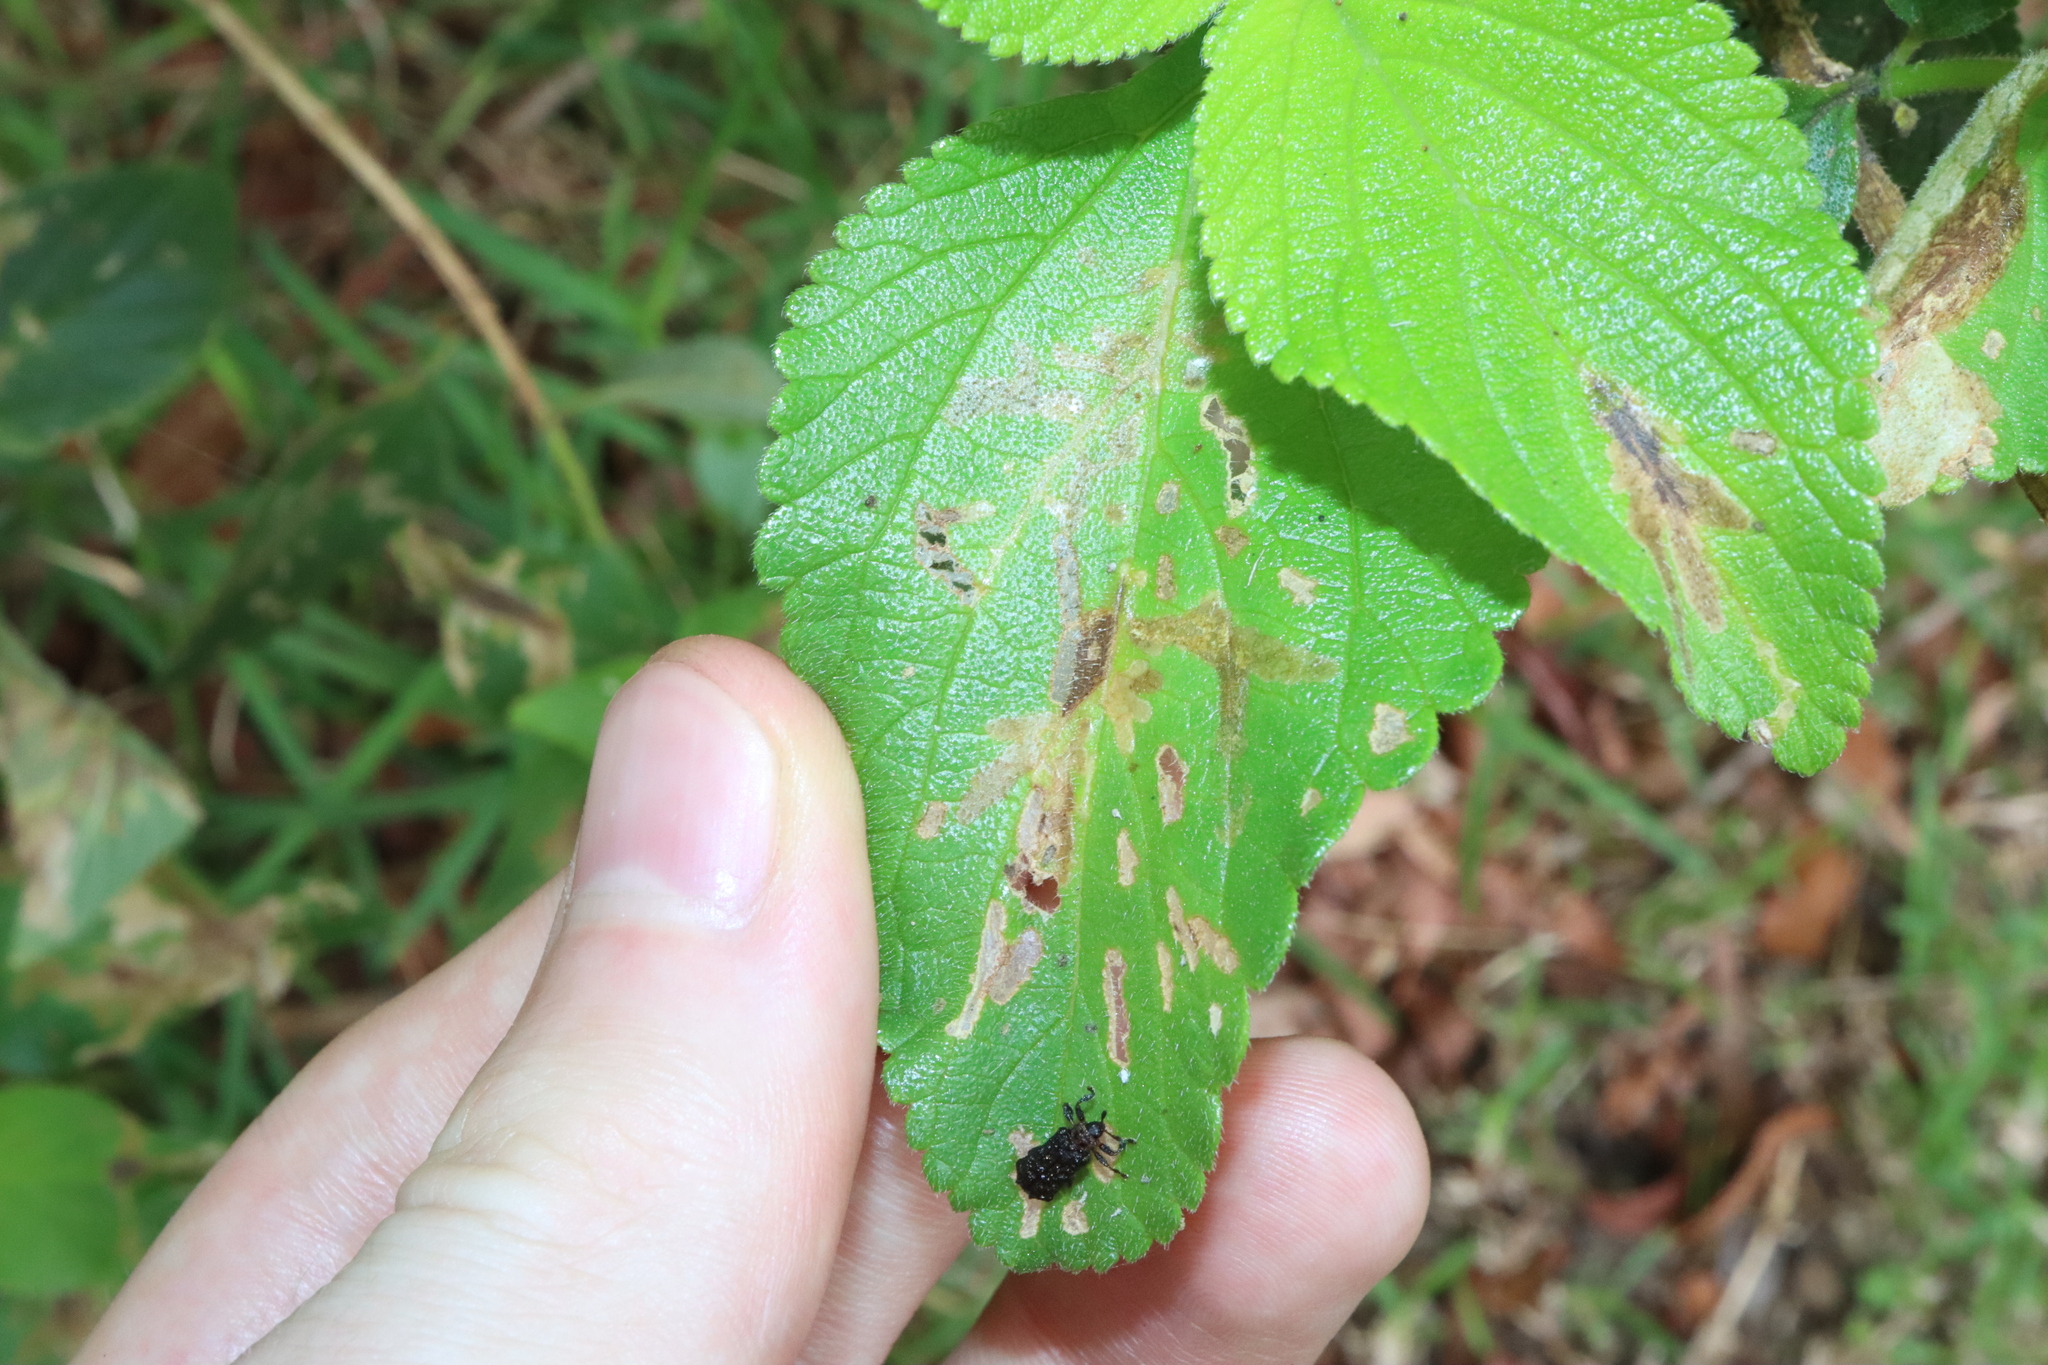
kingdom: Animalia
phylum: Arthropoda
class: Insecta
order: Coleoptera
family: Chrysomelidae
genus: Octotoma
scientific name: Octotoma scabripennis
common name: Beetle
